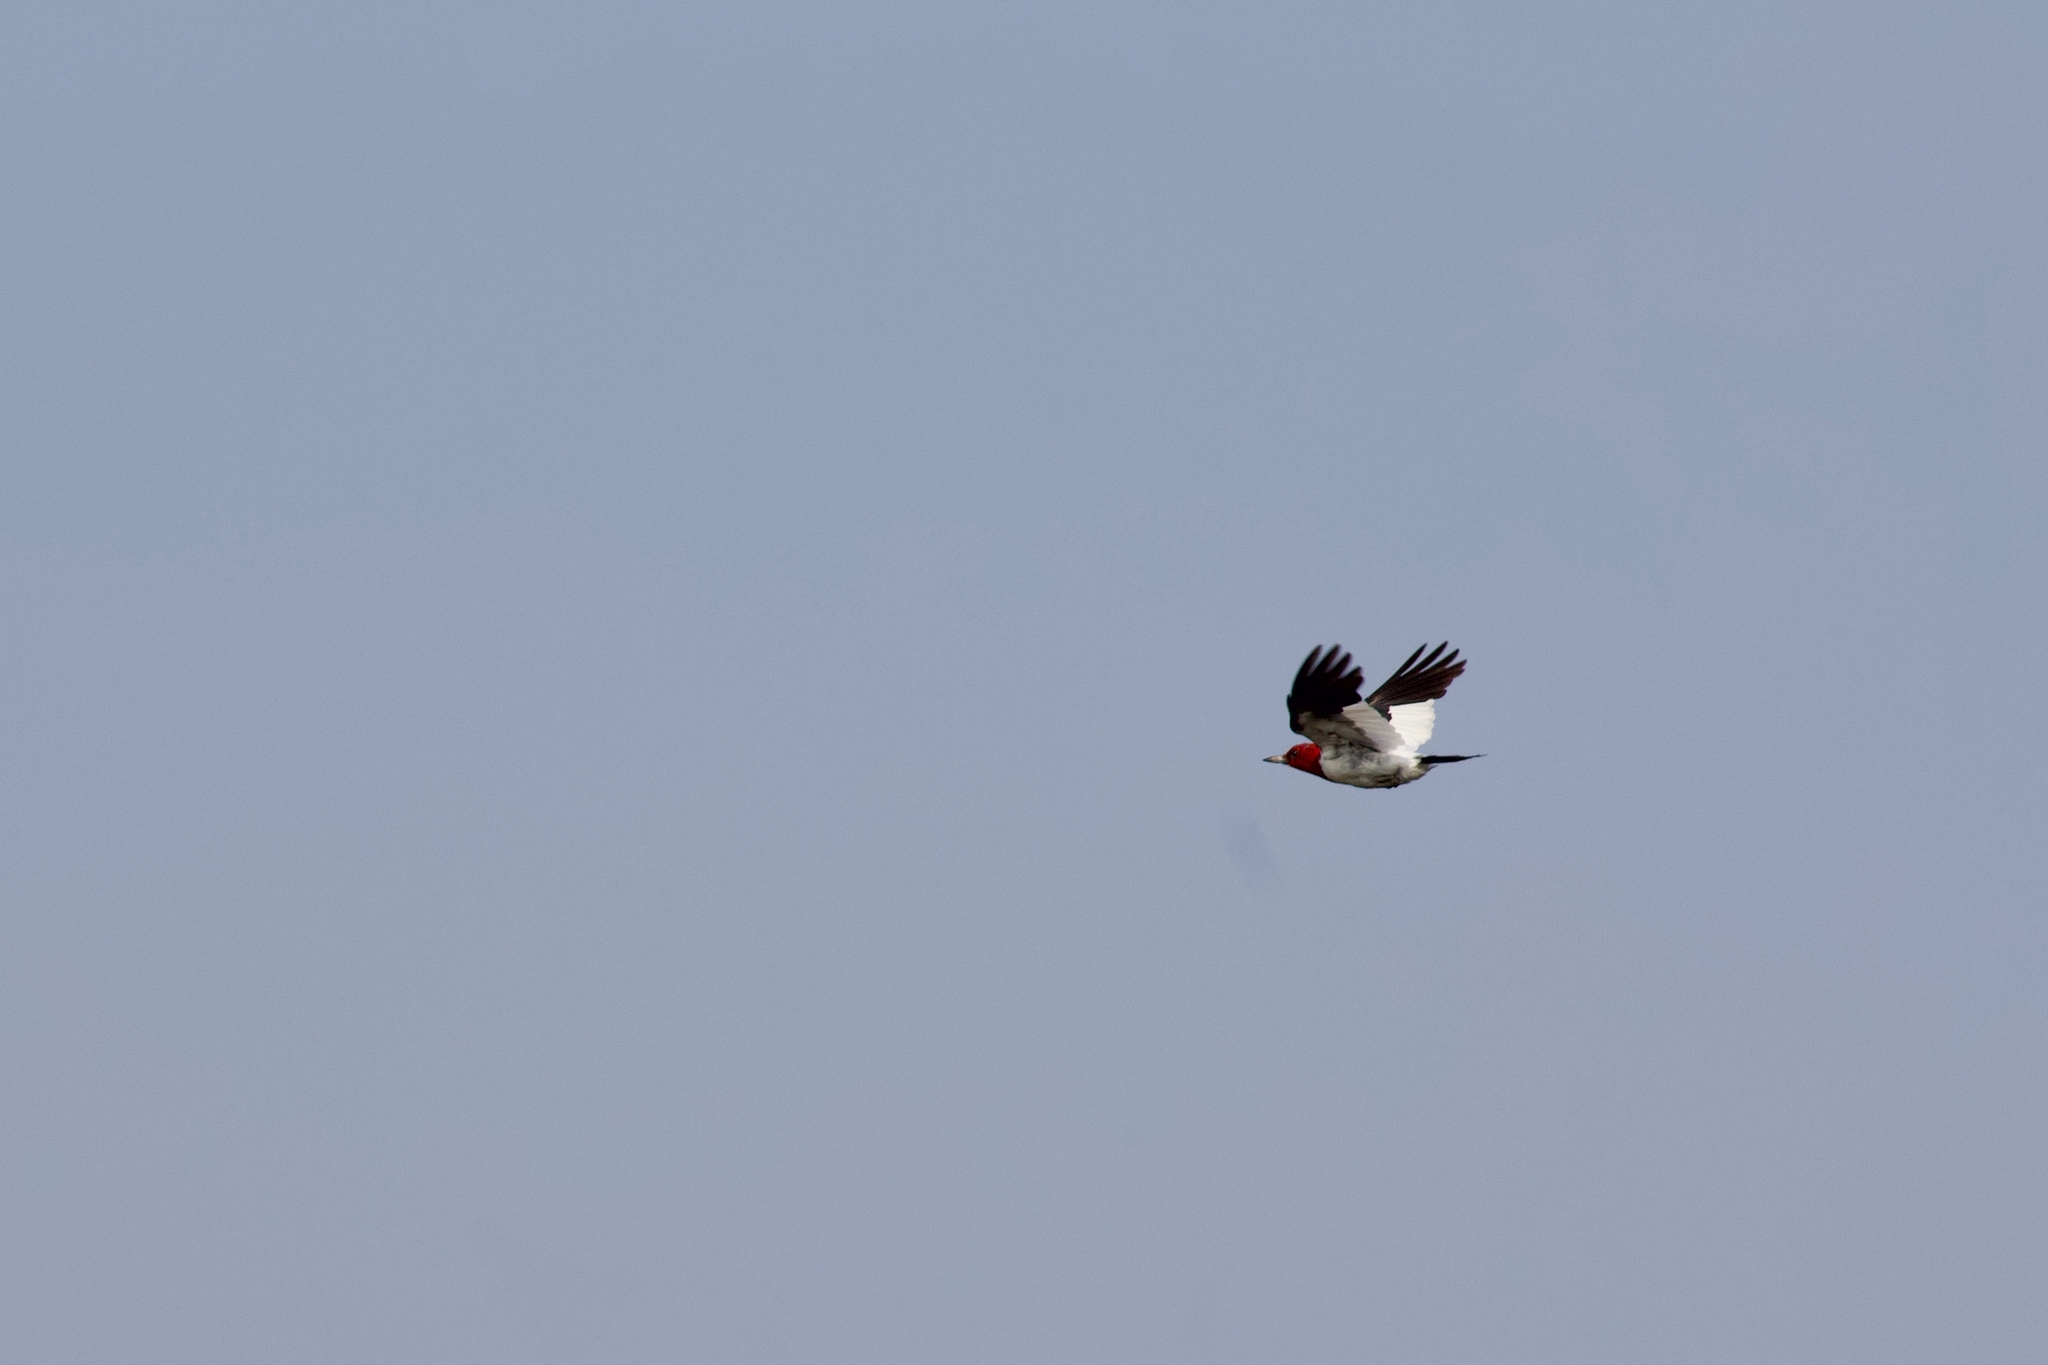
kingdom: Animalia
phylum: Chordata
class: Aves
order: Piciformes
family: Picidae
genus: Melanerpes
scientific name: Melanerpes erythrocephalus
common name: Red-headed woodpecker
